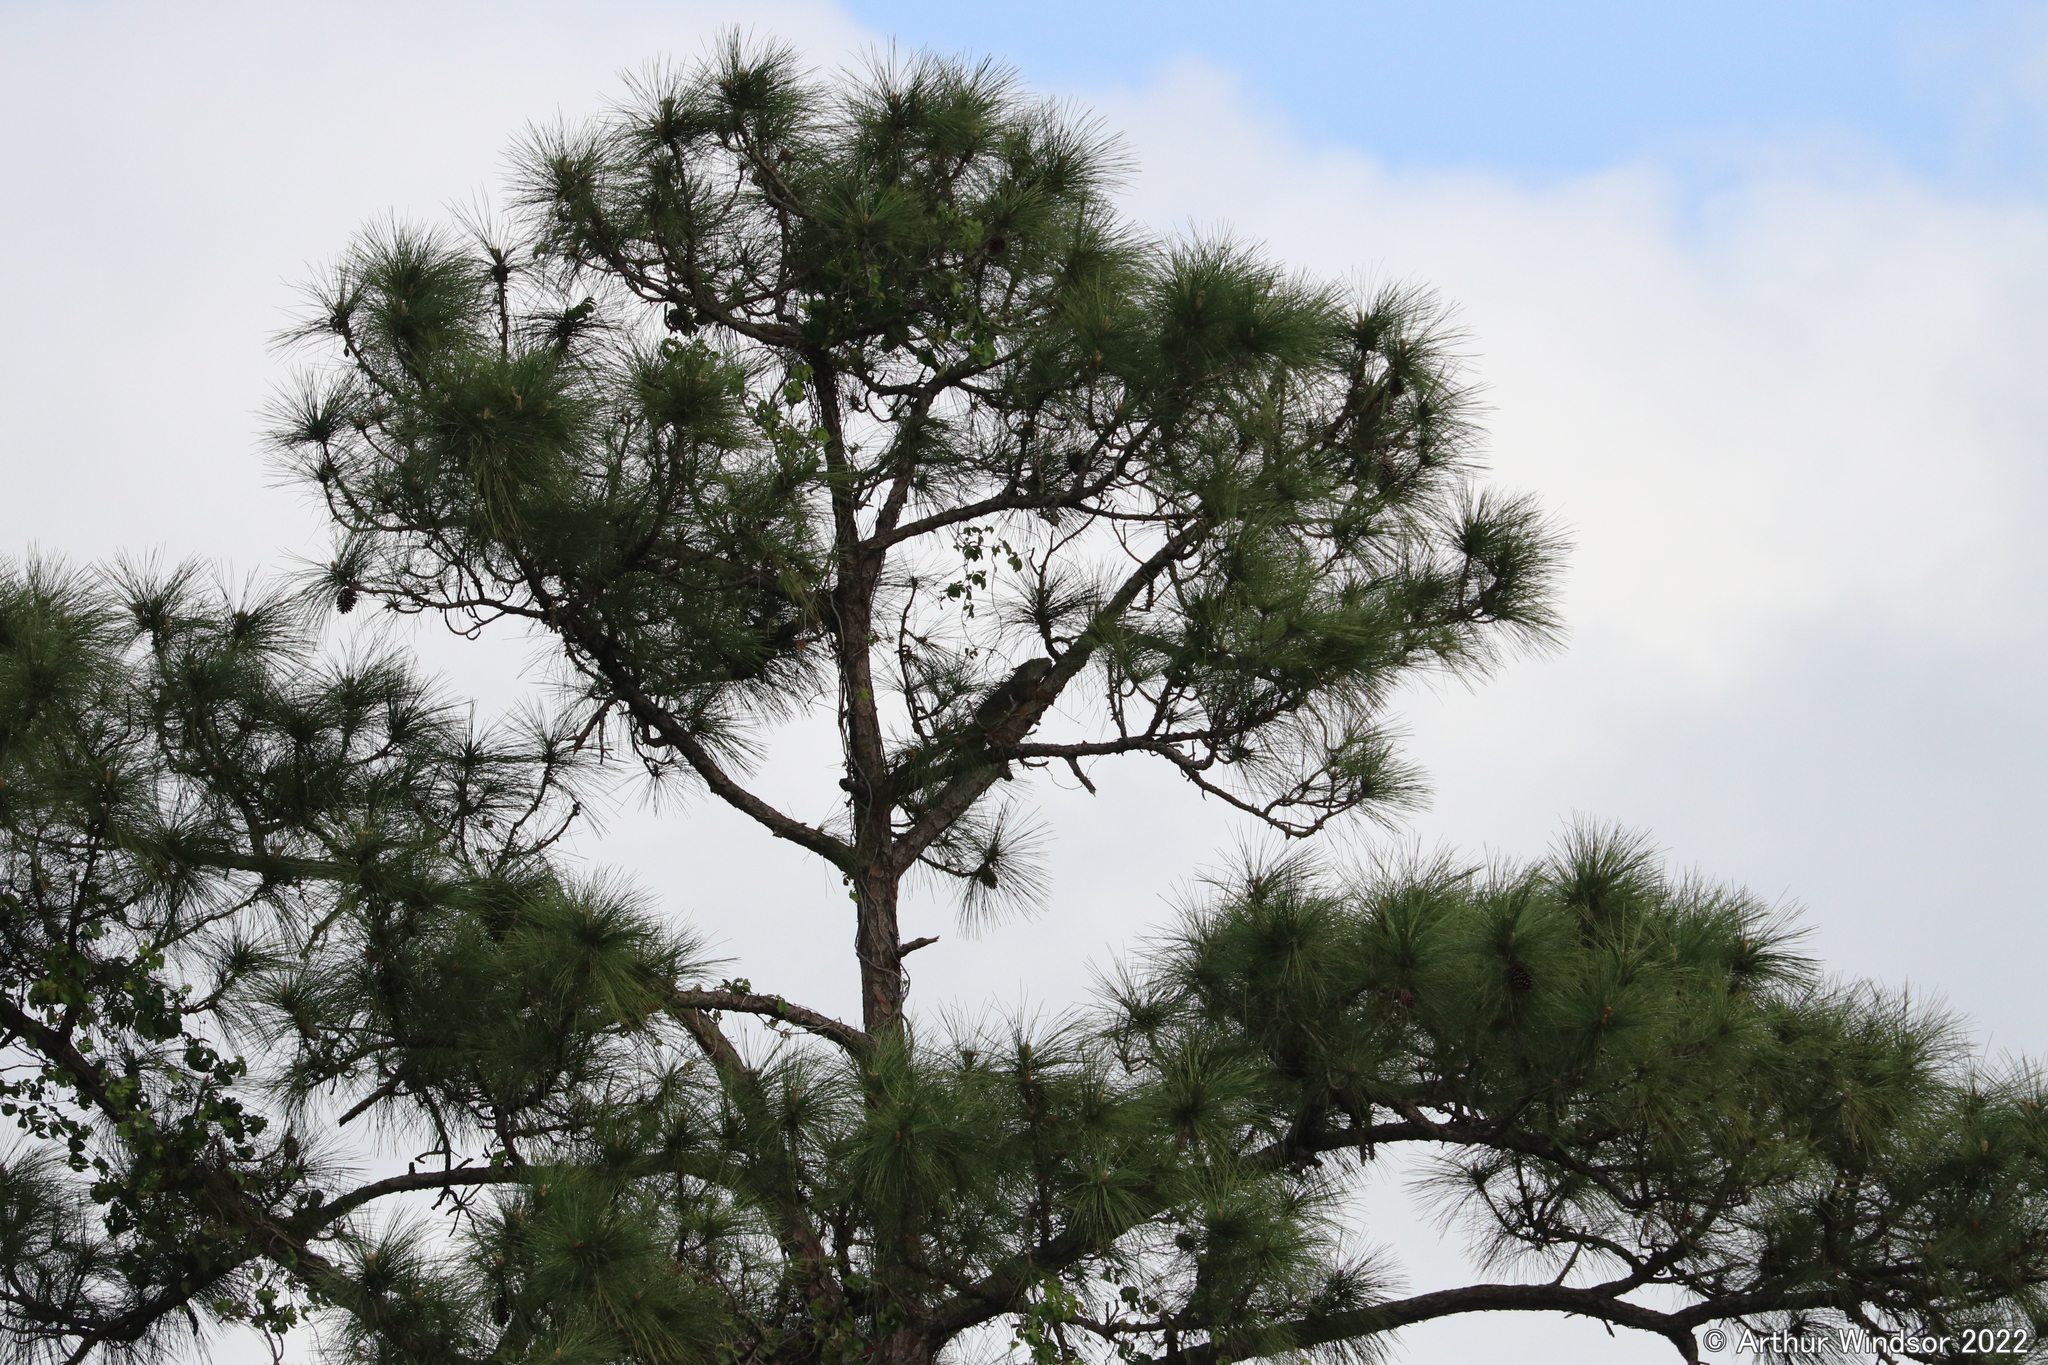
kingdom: Animalia
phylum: Chordata
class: Squamata
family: Iguanidae
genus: Iguana
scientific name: Iguana iguana
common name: Green iguana
